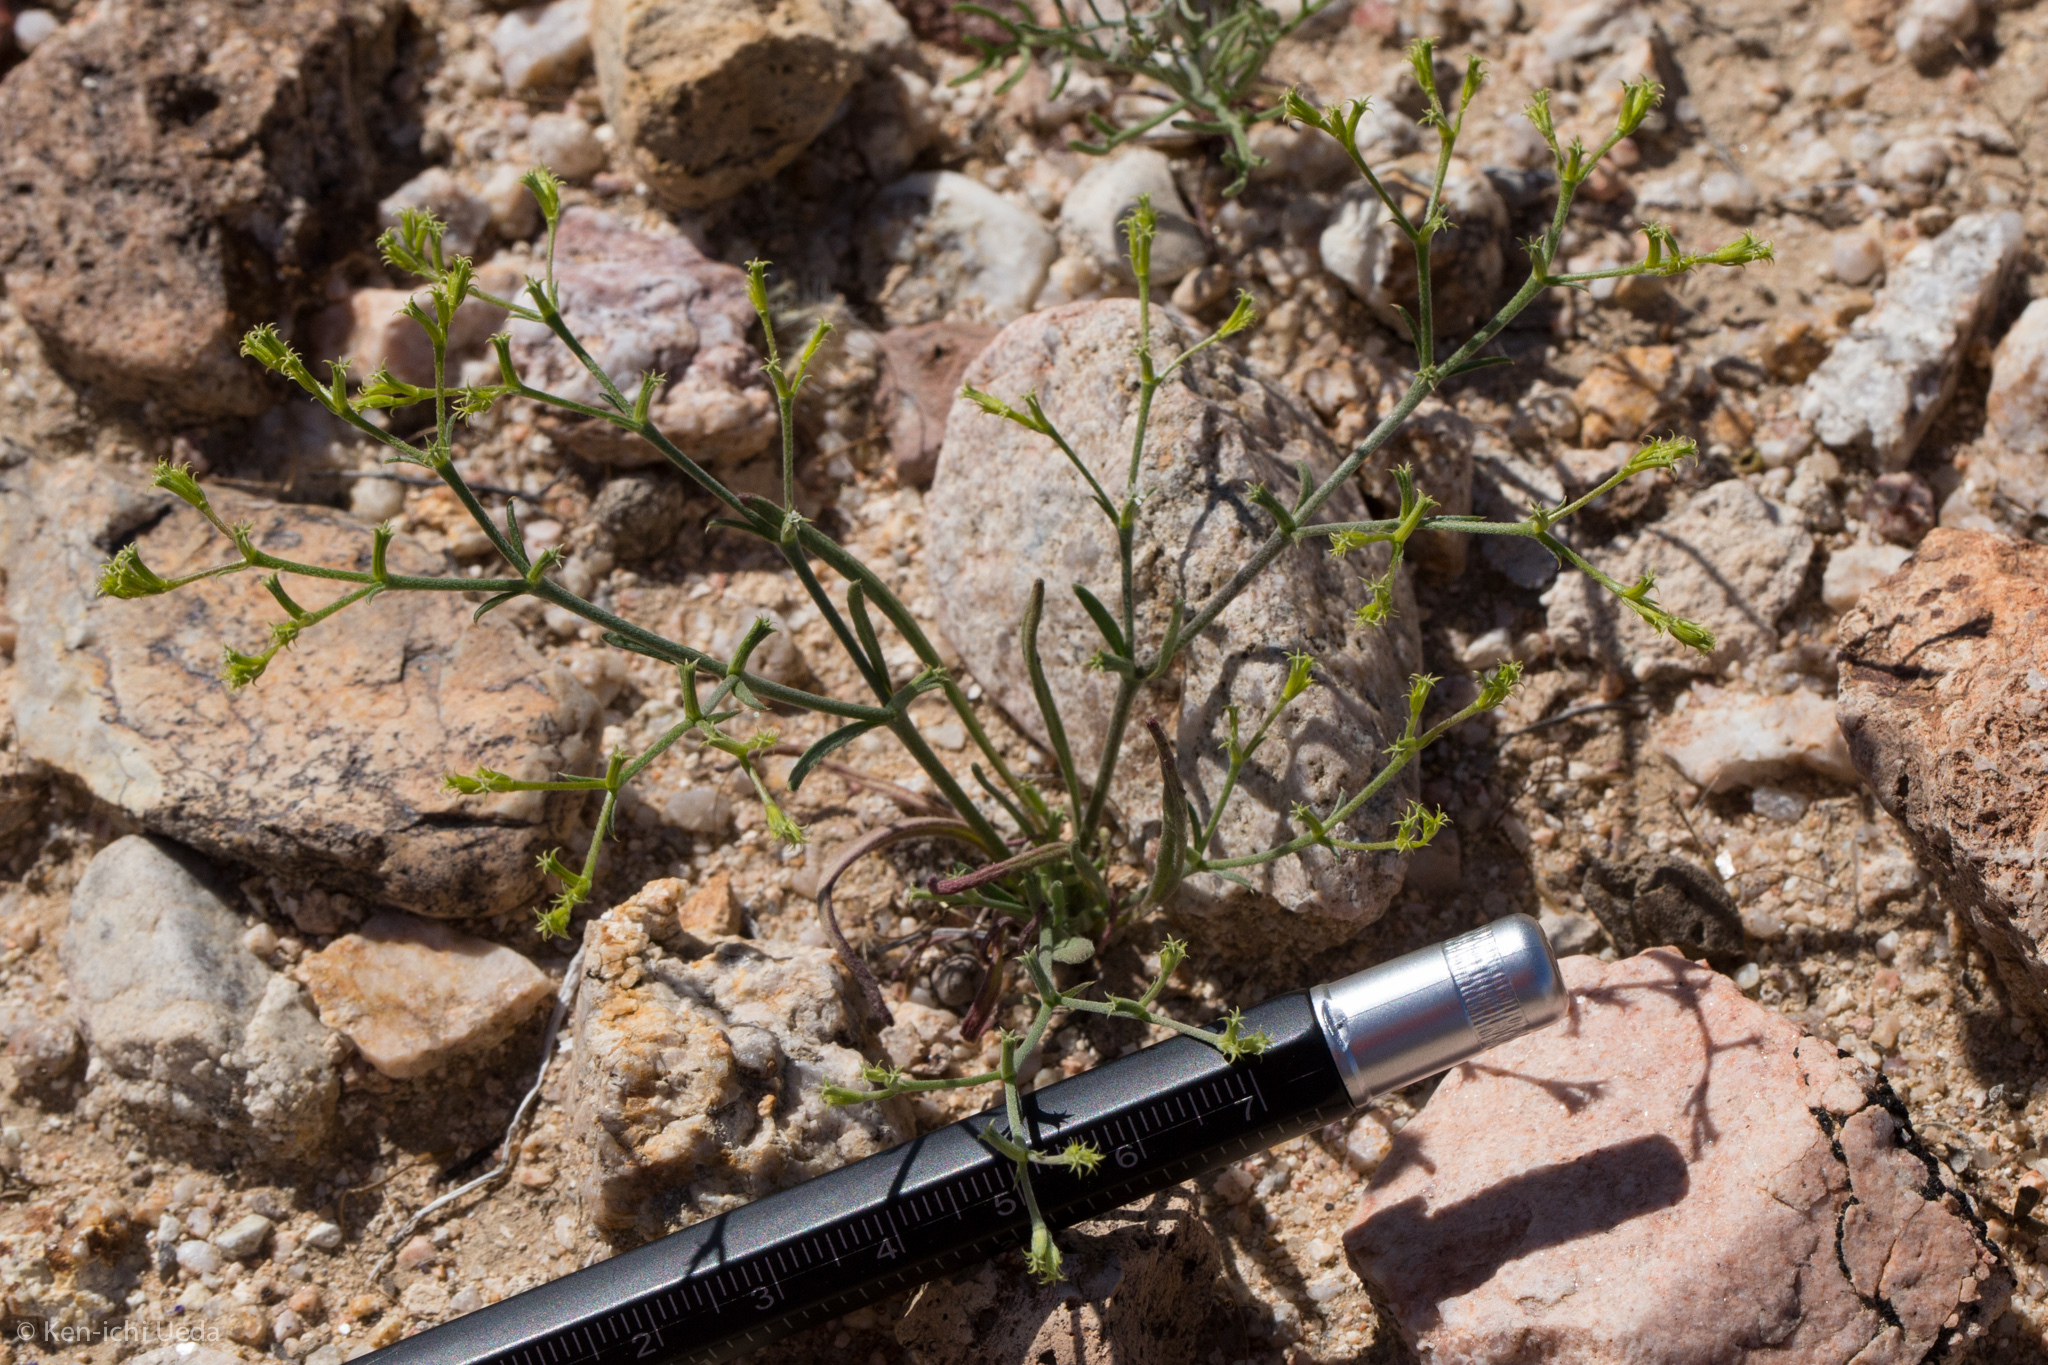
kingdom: Plantae
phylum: Tracheophyta
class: Magnoliopsida
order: Caryophyllales
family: Polygonaceae
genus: Chorizanthe
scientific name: Chorizanthe brevicornu
